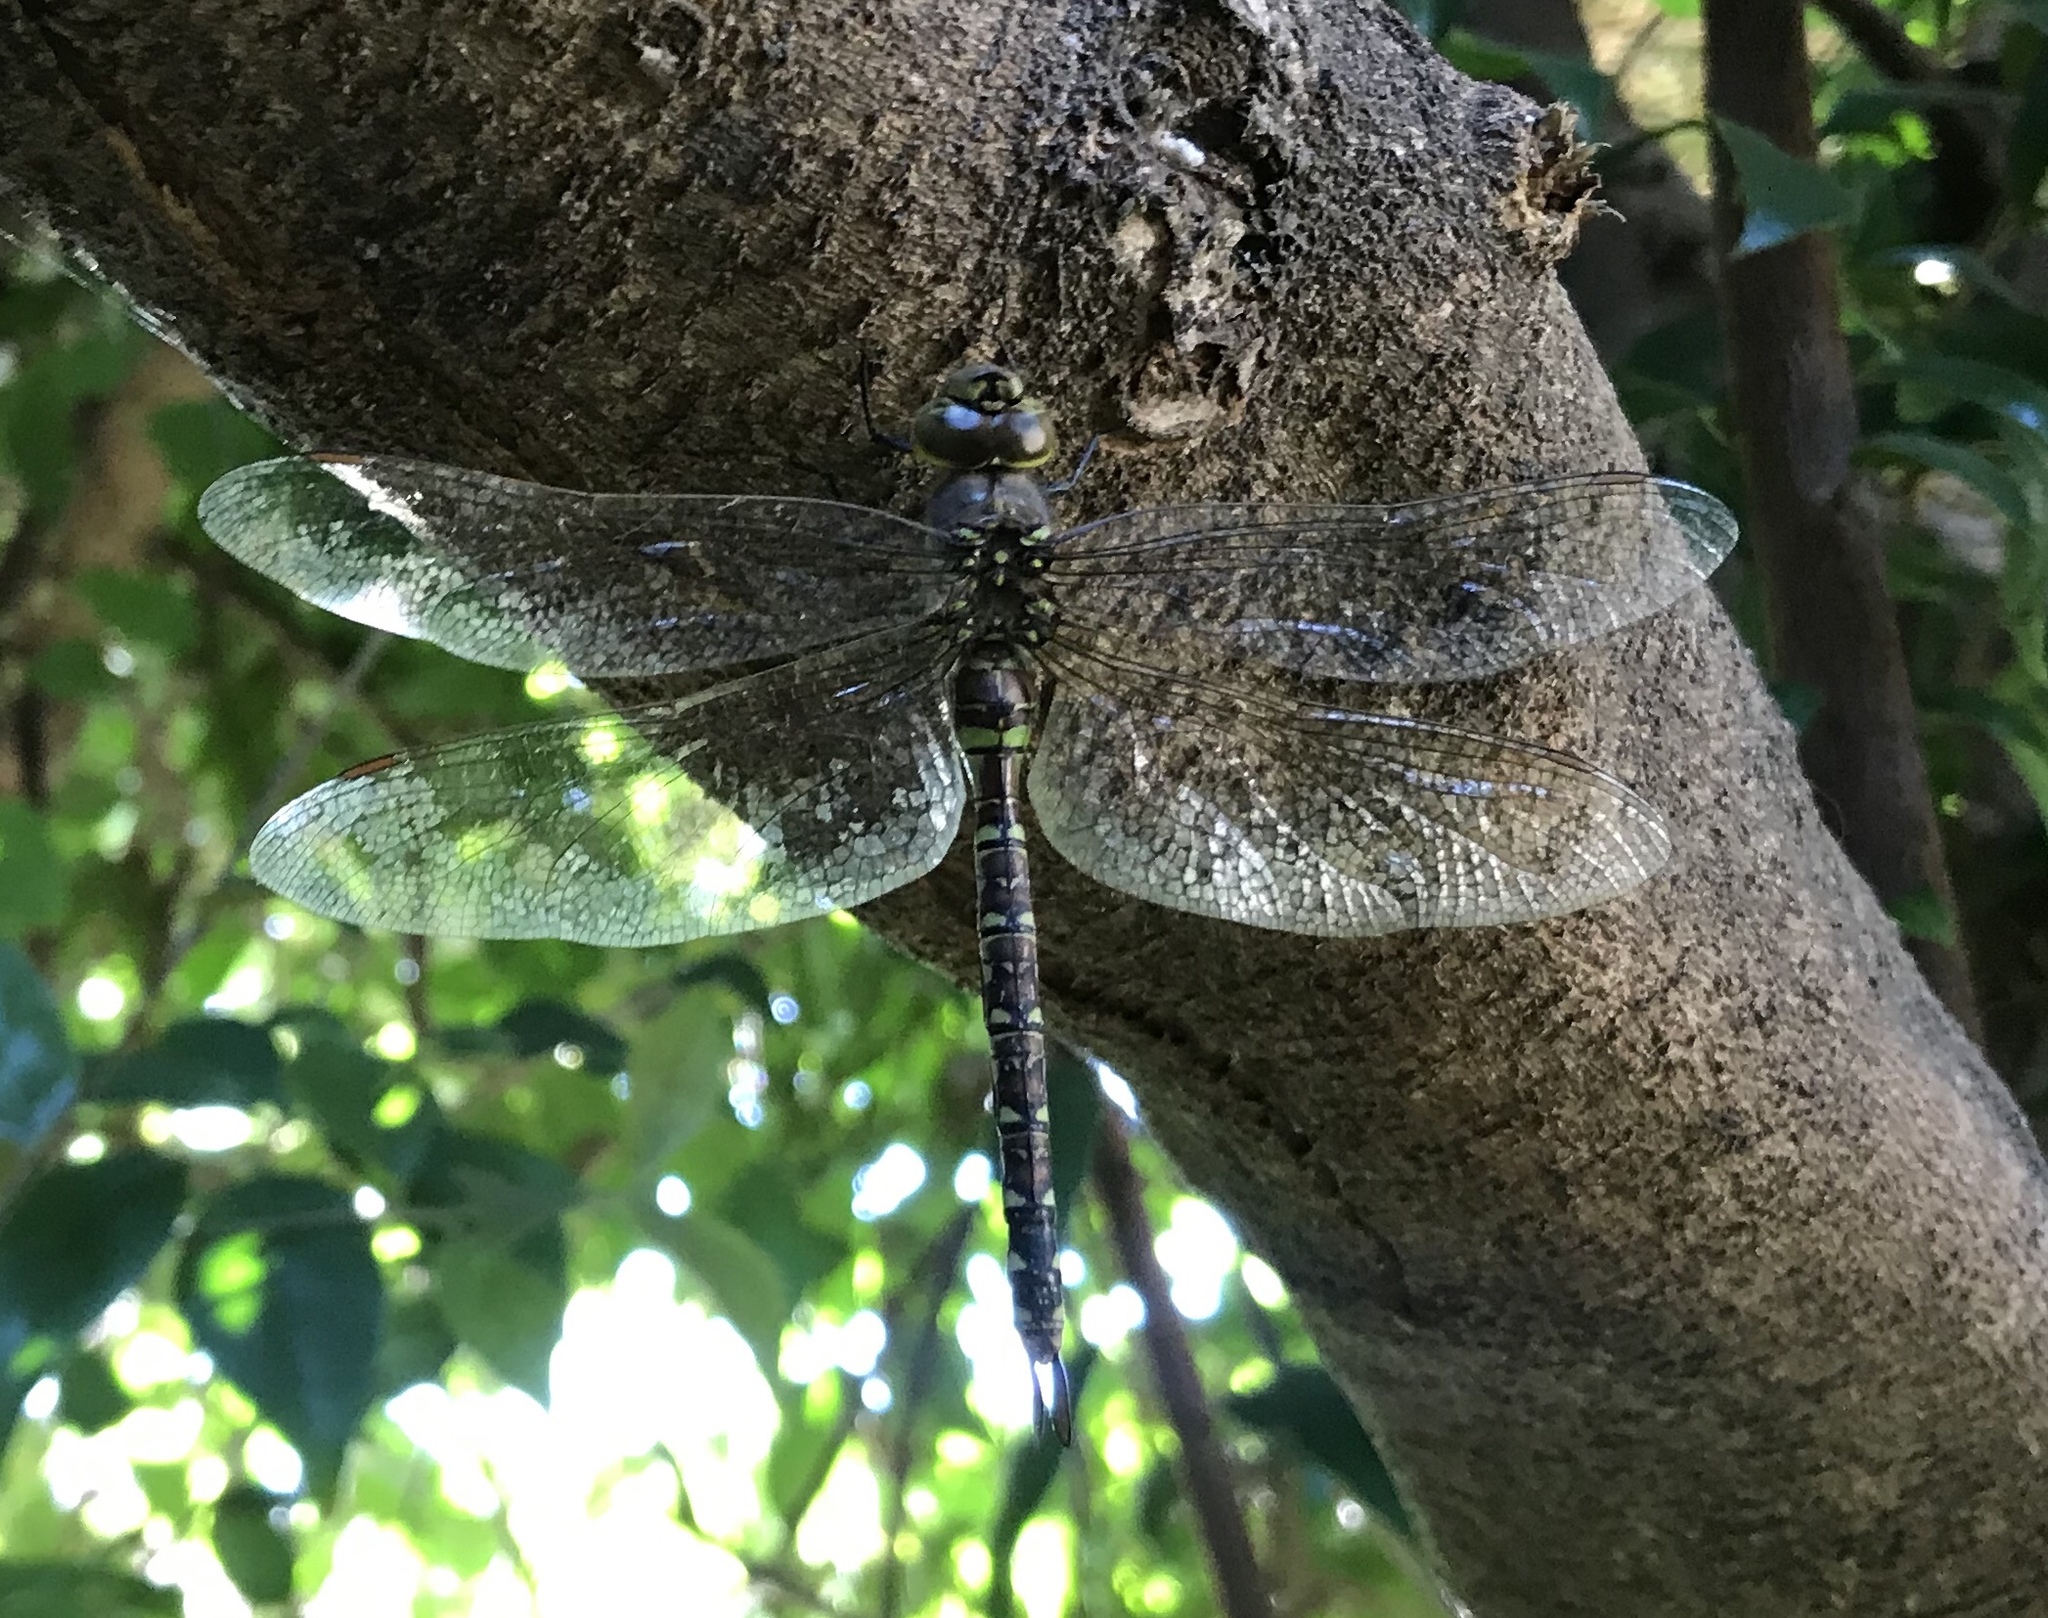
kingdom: Animalia
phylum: Arthropoda
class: Insecta
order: Odonata
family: Aeshnidae
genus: Rhionaeschna
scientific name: Rhionaeschna multicolor
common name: Blue-eyed darner
